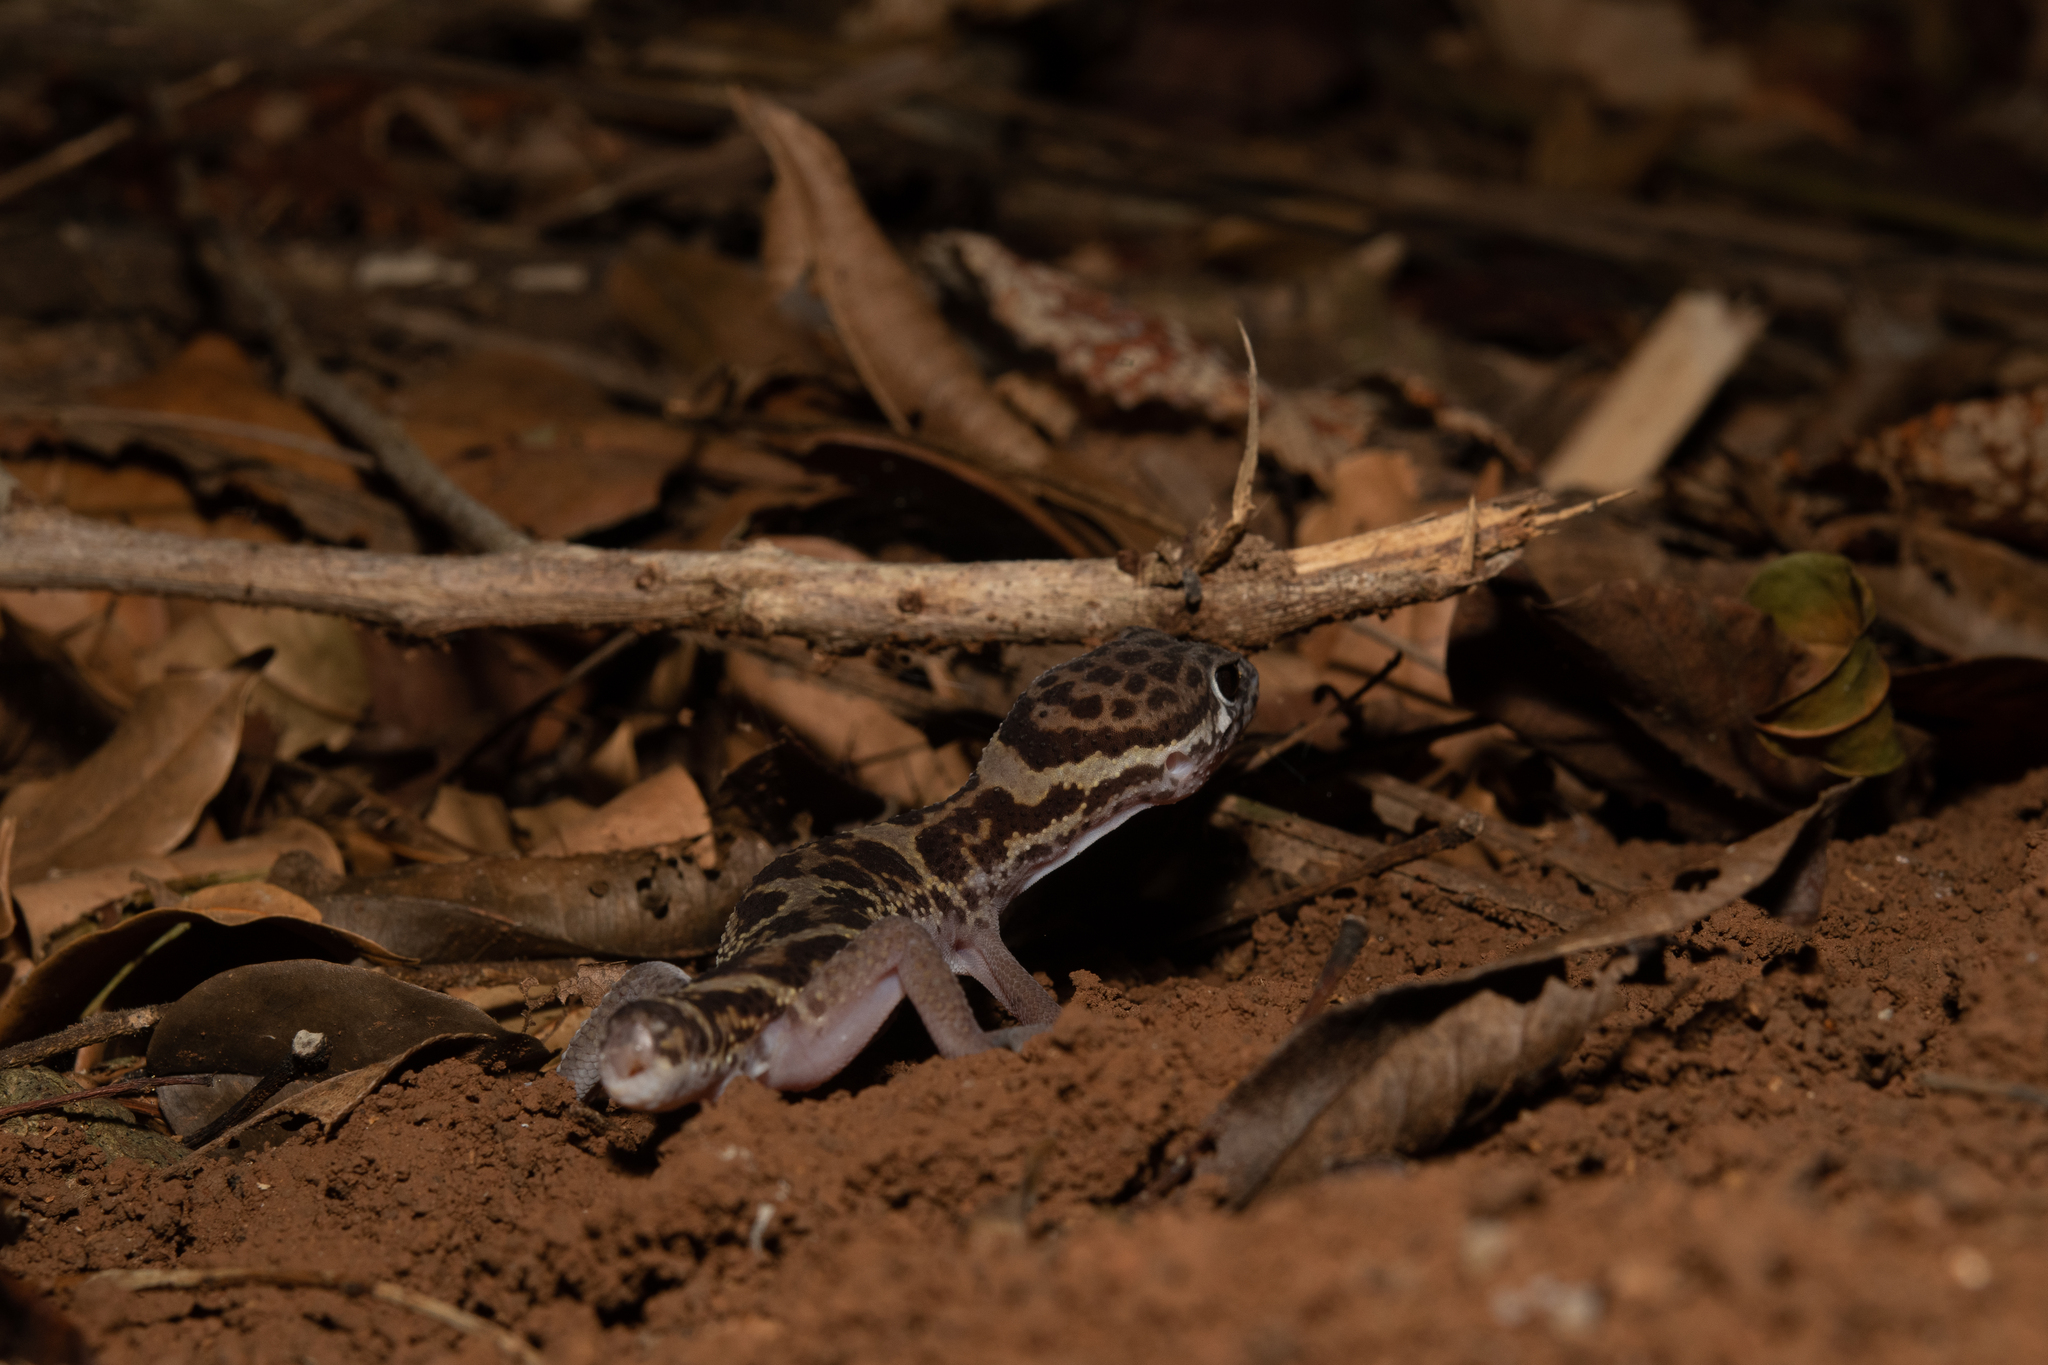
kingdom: Animalia
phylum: Chordata
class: Squamata
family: Eublepharidae
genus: Coleonyx
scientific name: Coleonyx mitratus
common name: Central american banded gecko
